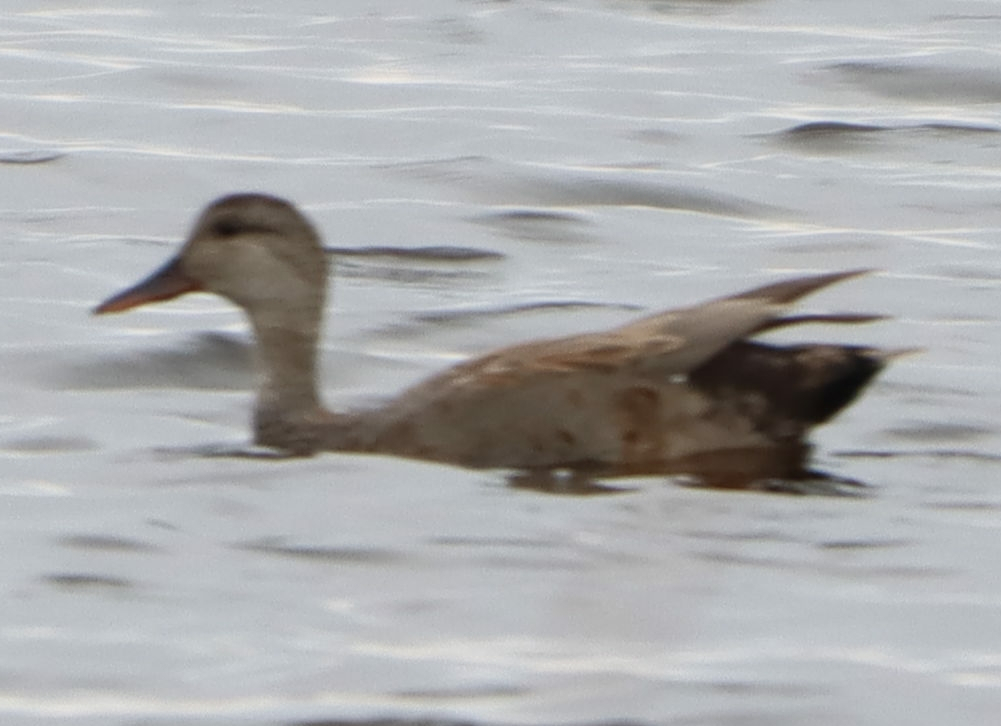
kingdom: Animalia
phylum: Chordata
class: Aves
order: Anseriformes
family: Anatidae
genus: Mareca
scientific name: Mareca strepera
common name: Gadwall
